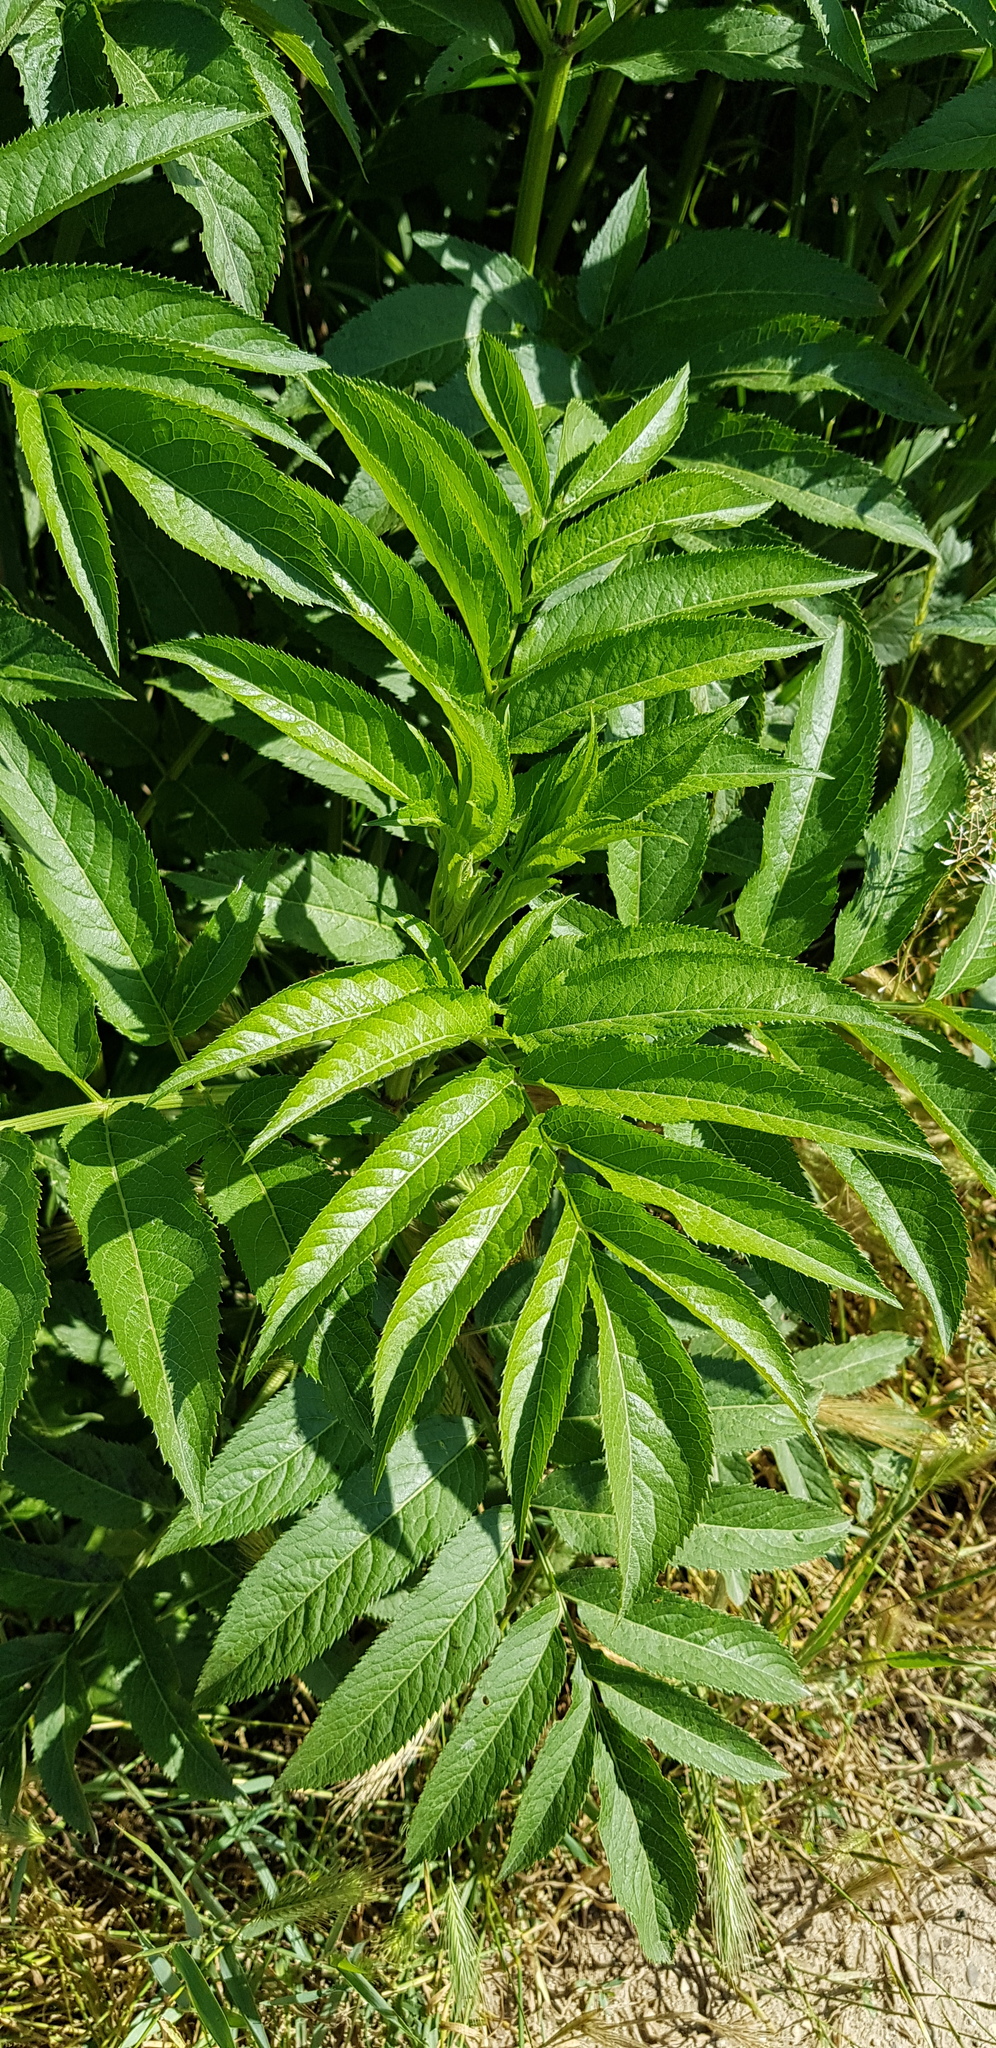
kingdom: Plantae
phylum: Tracheophyta
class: Magnoliopsida
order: Dipsacales
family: Viburnaceae
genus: Sambucus
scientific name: Sambucus ebulus
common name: Dwarf elder
